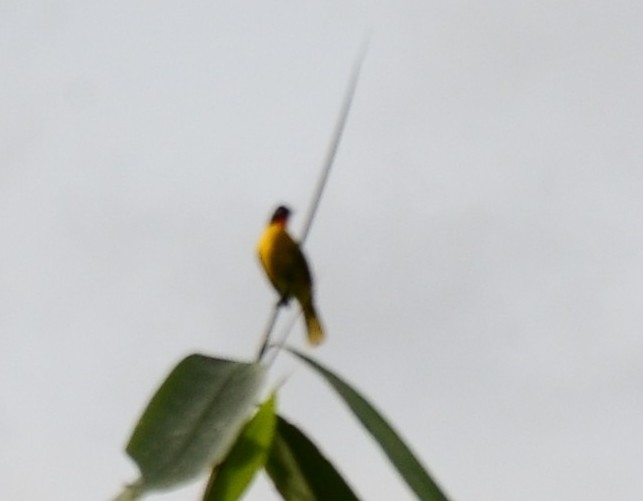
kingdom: Animalia
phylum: Chordata
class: Aves
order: Passeriformes
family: Pycnonotidae
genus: Pycnonotus
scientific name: Pycnonotus gularis
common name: Flame-throated bulbul
